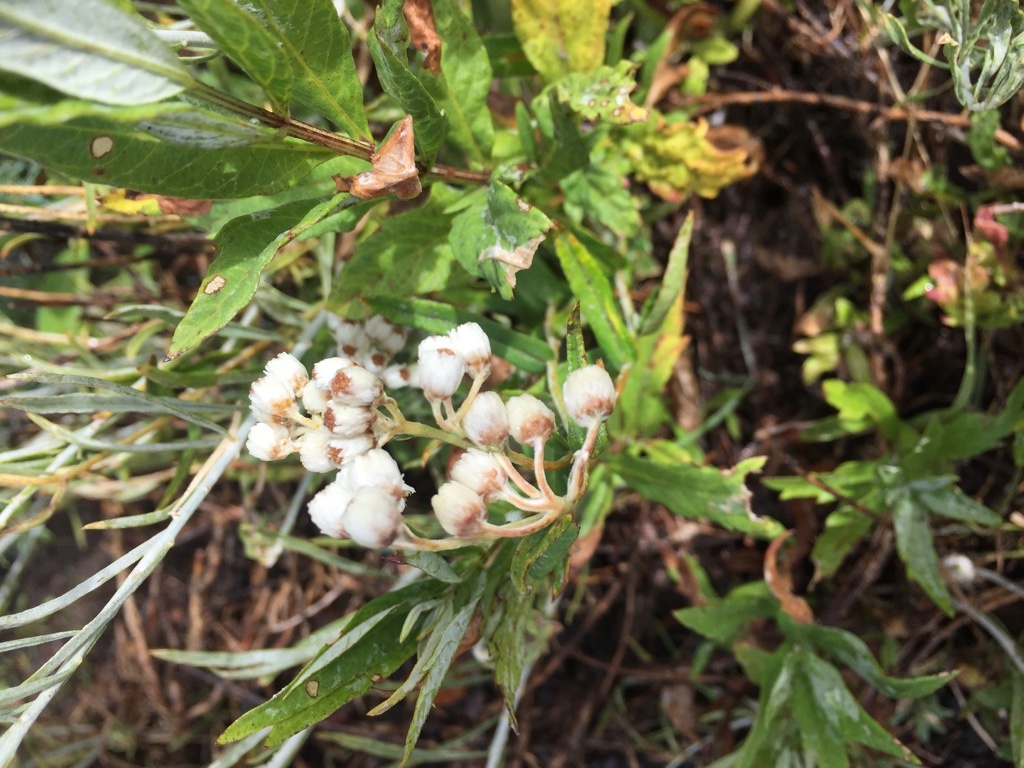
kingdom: Plantae
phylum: Tracheophyta
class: Magnoliopsida
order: Asterales
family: Asteraceae
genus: Anaphalis
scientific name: Anaphalis margaritacea
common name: Pearly everlasting
